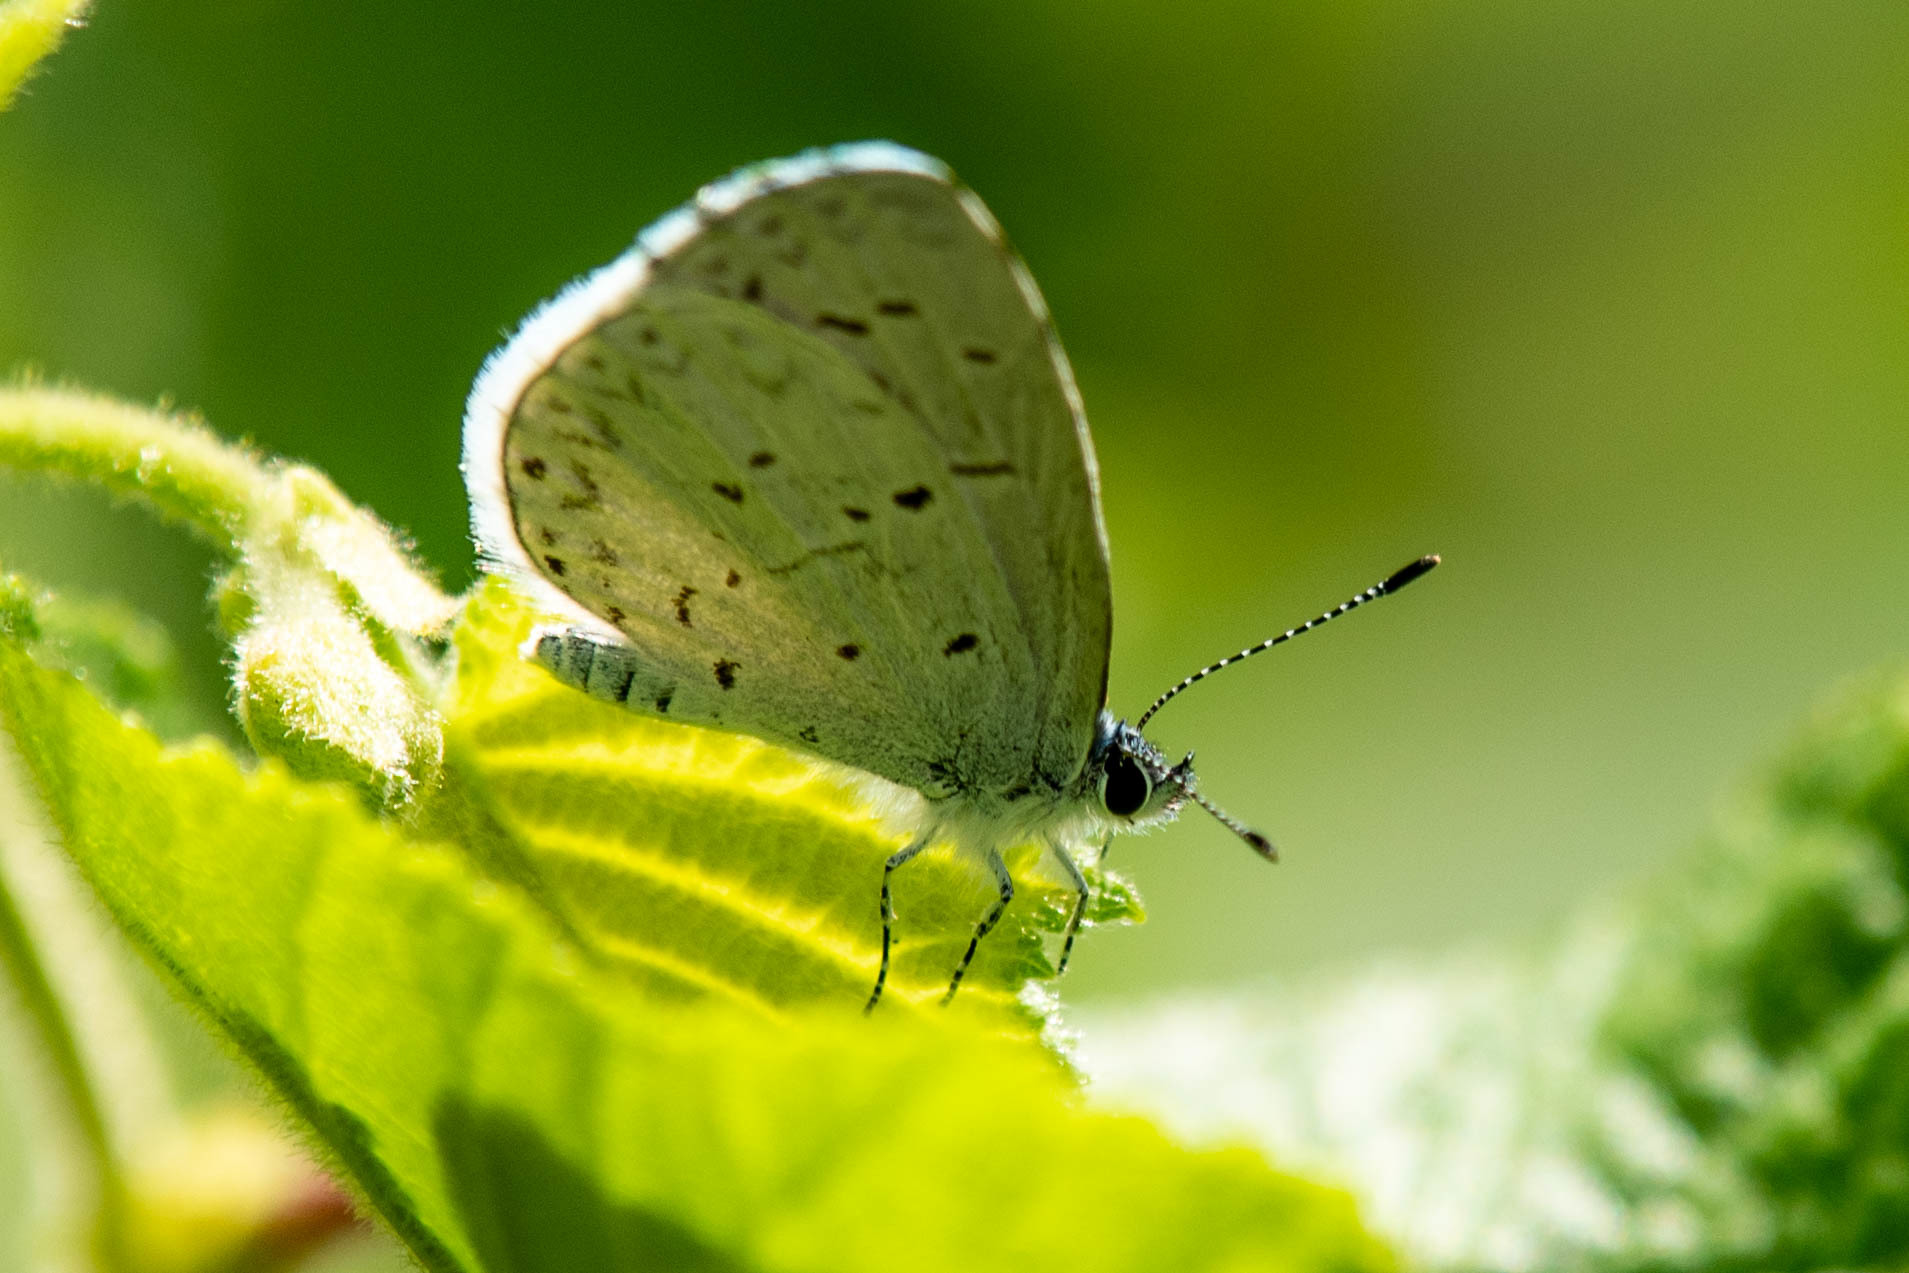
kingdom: Animalia
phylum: Arthropoda
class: Insecta
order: Lepidoptera
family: Lycaenidae
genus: Cyaniris
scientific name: Cyaniris neglecta
